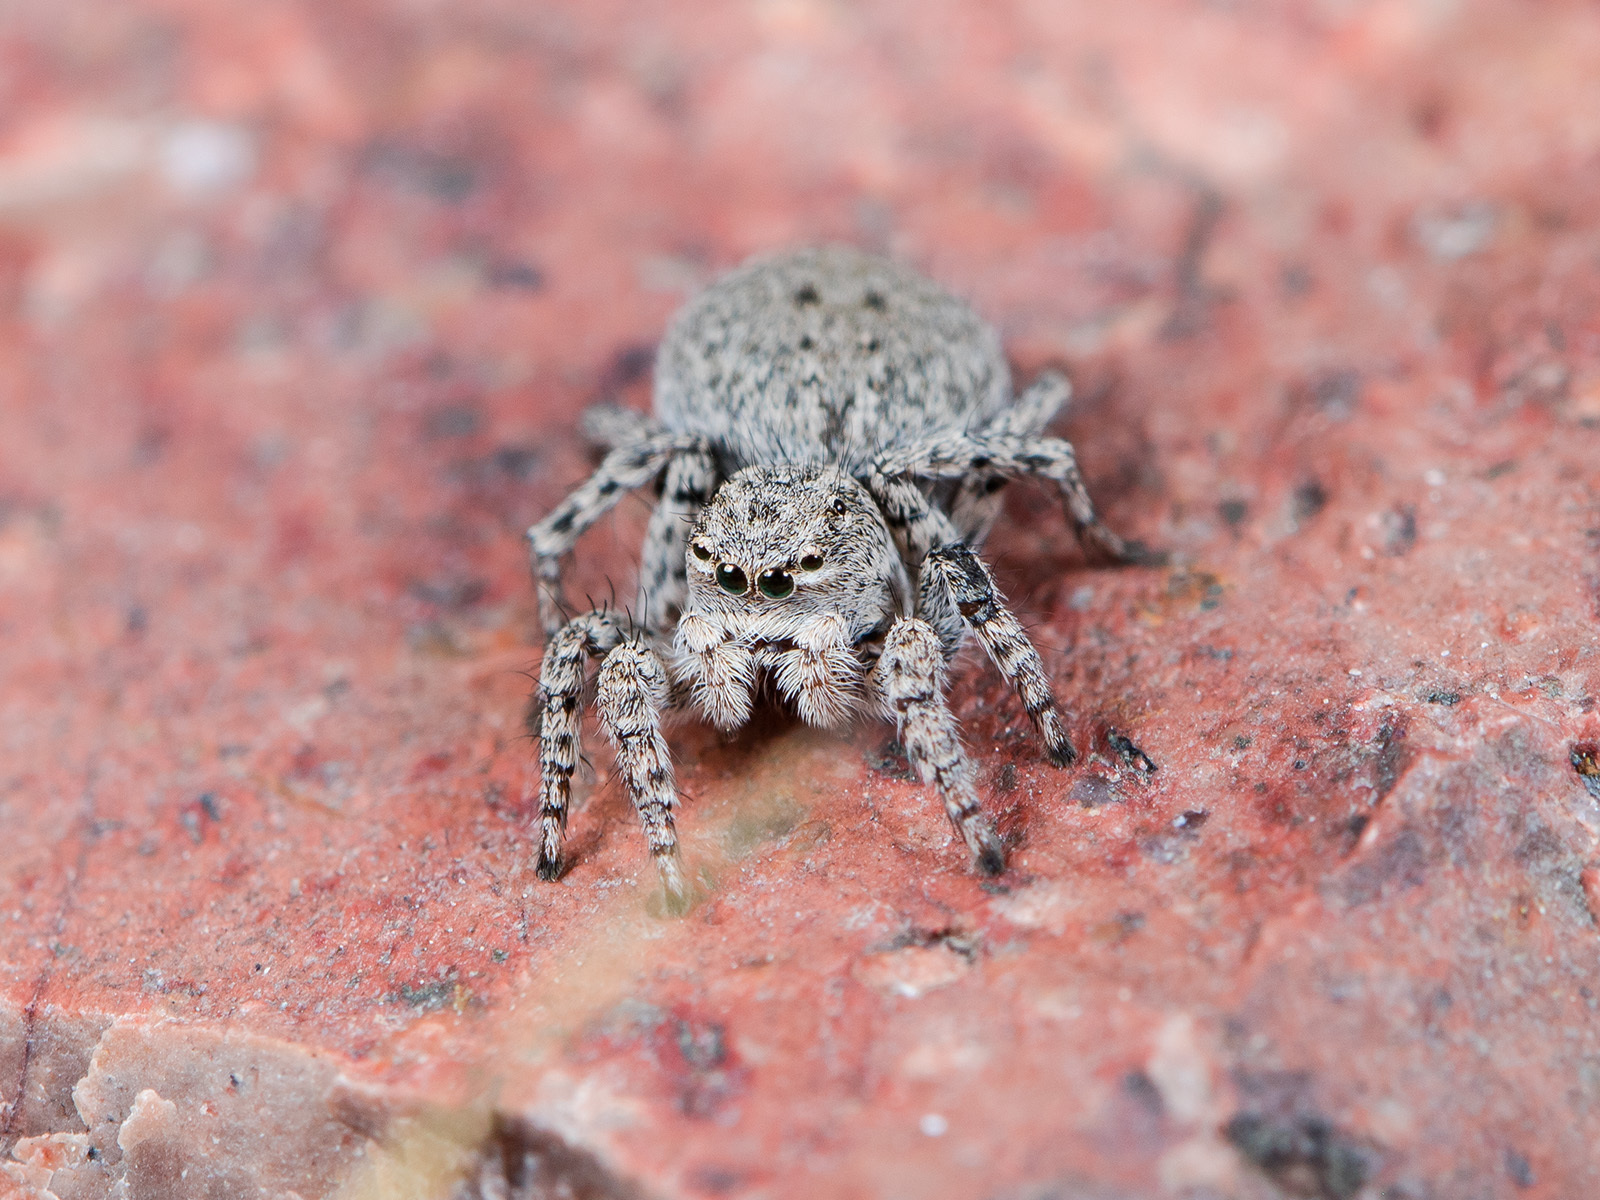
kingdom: Animalia
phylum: Arthropoda
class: Arachnida
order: Araneae
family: Salticidae
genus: Aelurillus
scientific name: Aelurillus v-insignitus
